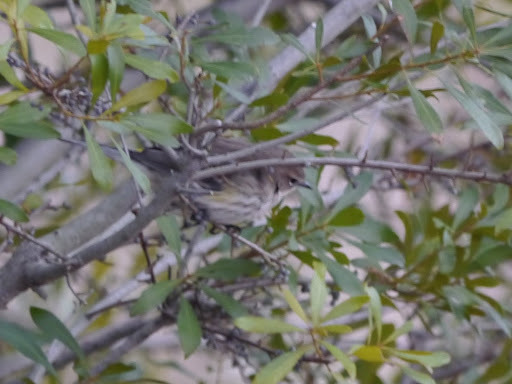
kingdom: Animalia
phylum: Chordata
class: Aves
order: Passeriformes
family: Parulidae
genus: Setophaga
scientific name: Setophaga coronata
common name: Myrtle warbler
